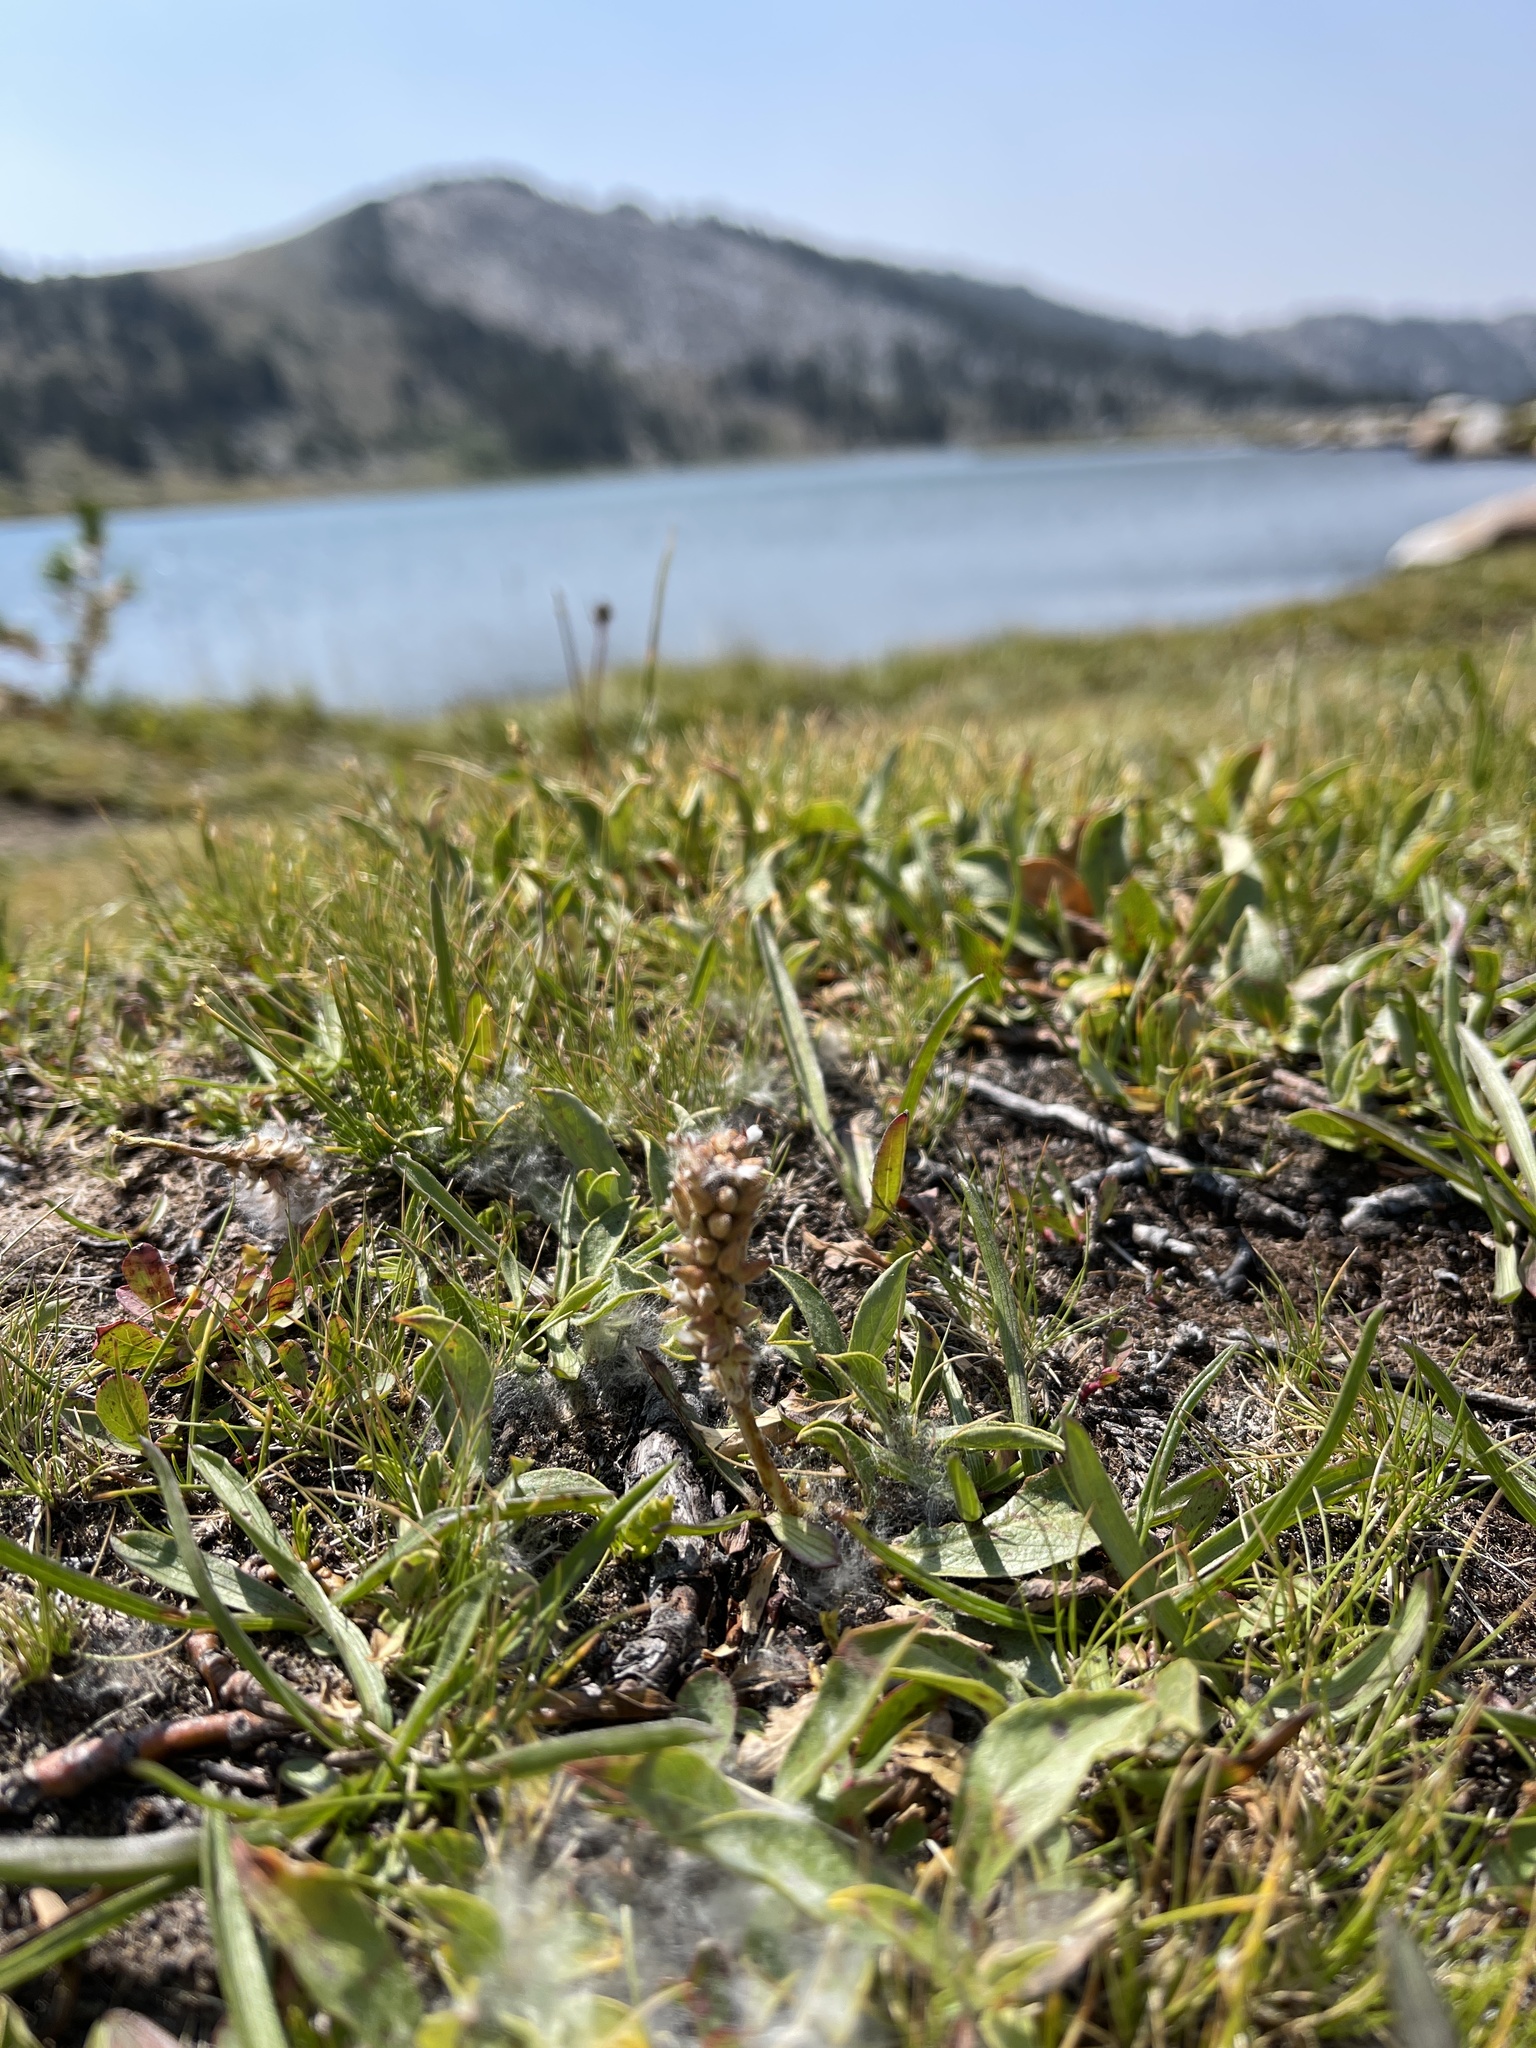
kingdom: Plantae
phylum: Tracheophyta
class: Magnoliopsida
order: Malpighiales
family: Salicaceae
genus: Salix
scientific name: Salix petrophila
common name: Rocky mountain willow
